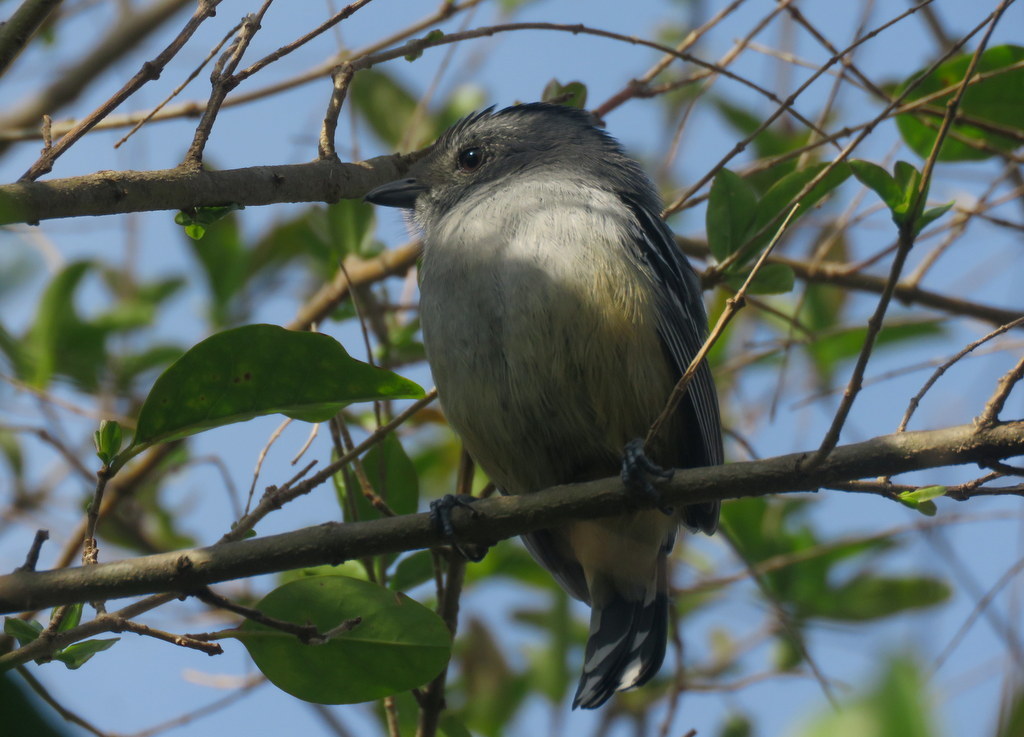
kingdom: Animalia
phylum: Chordata
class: Aves
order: Passeriformes
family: Thamnophilidae
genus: Thamnophilus
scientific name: Thamnophilus caerulescens
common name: Variable antshrike
